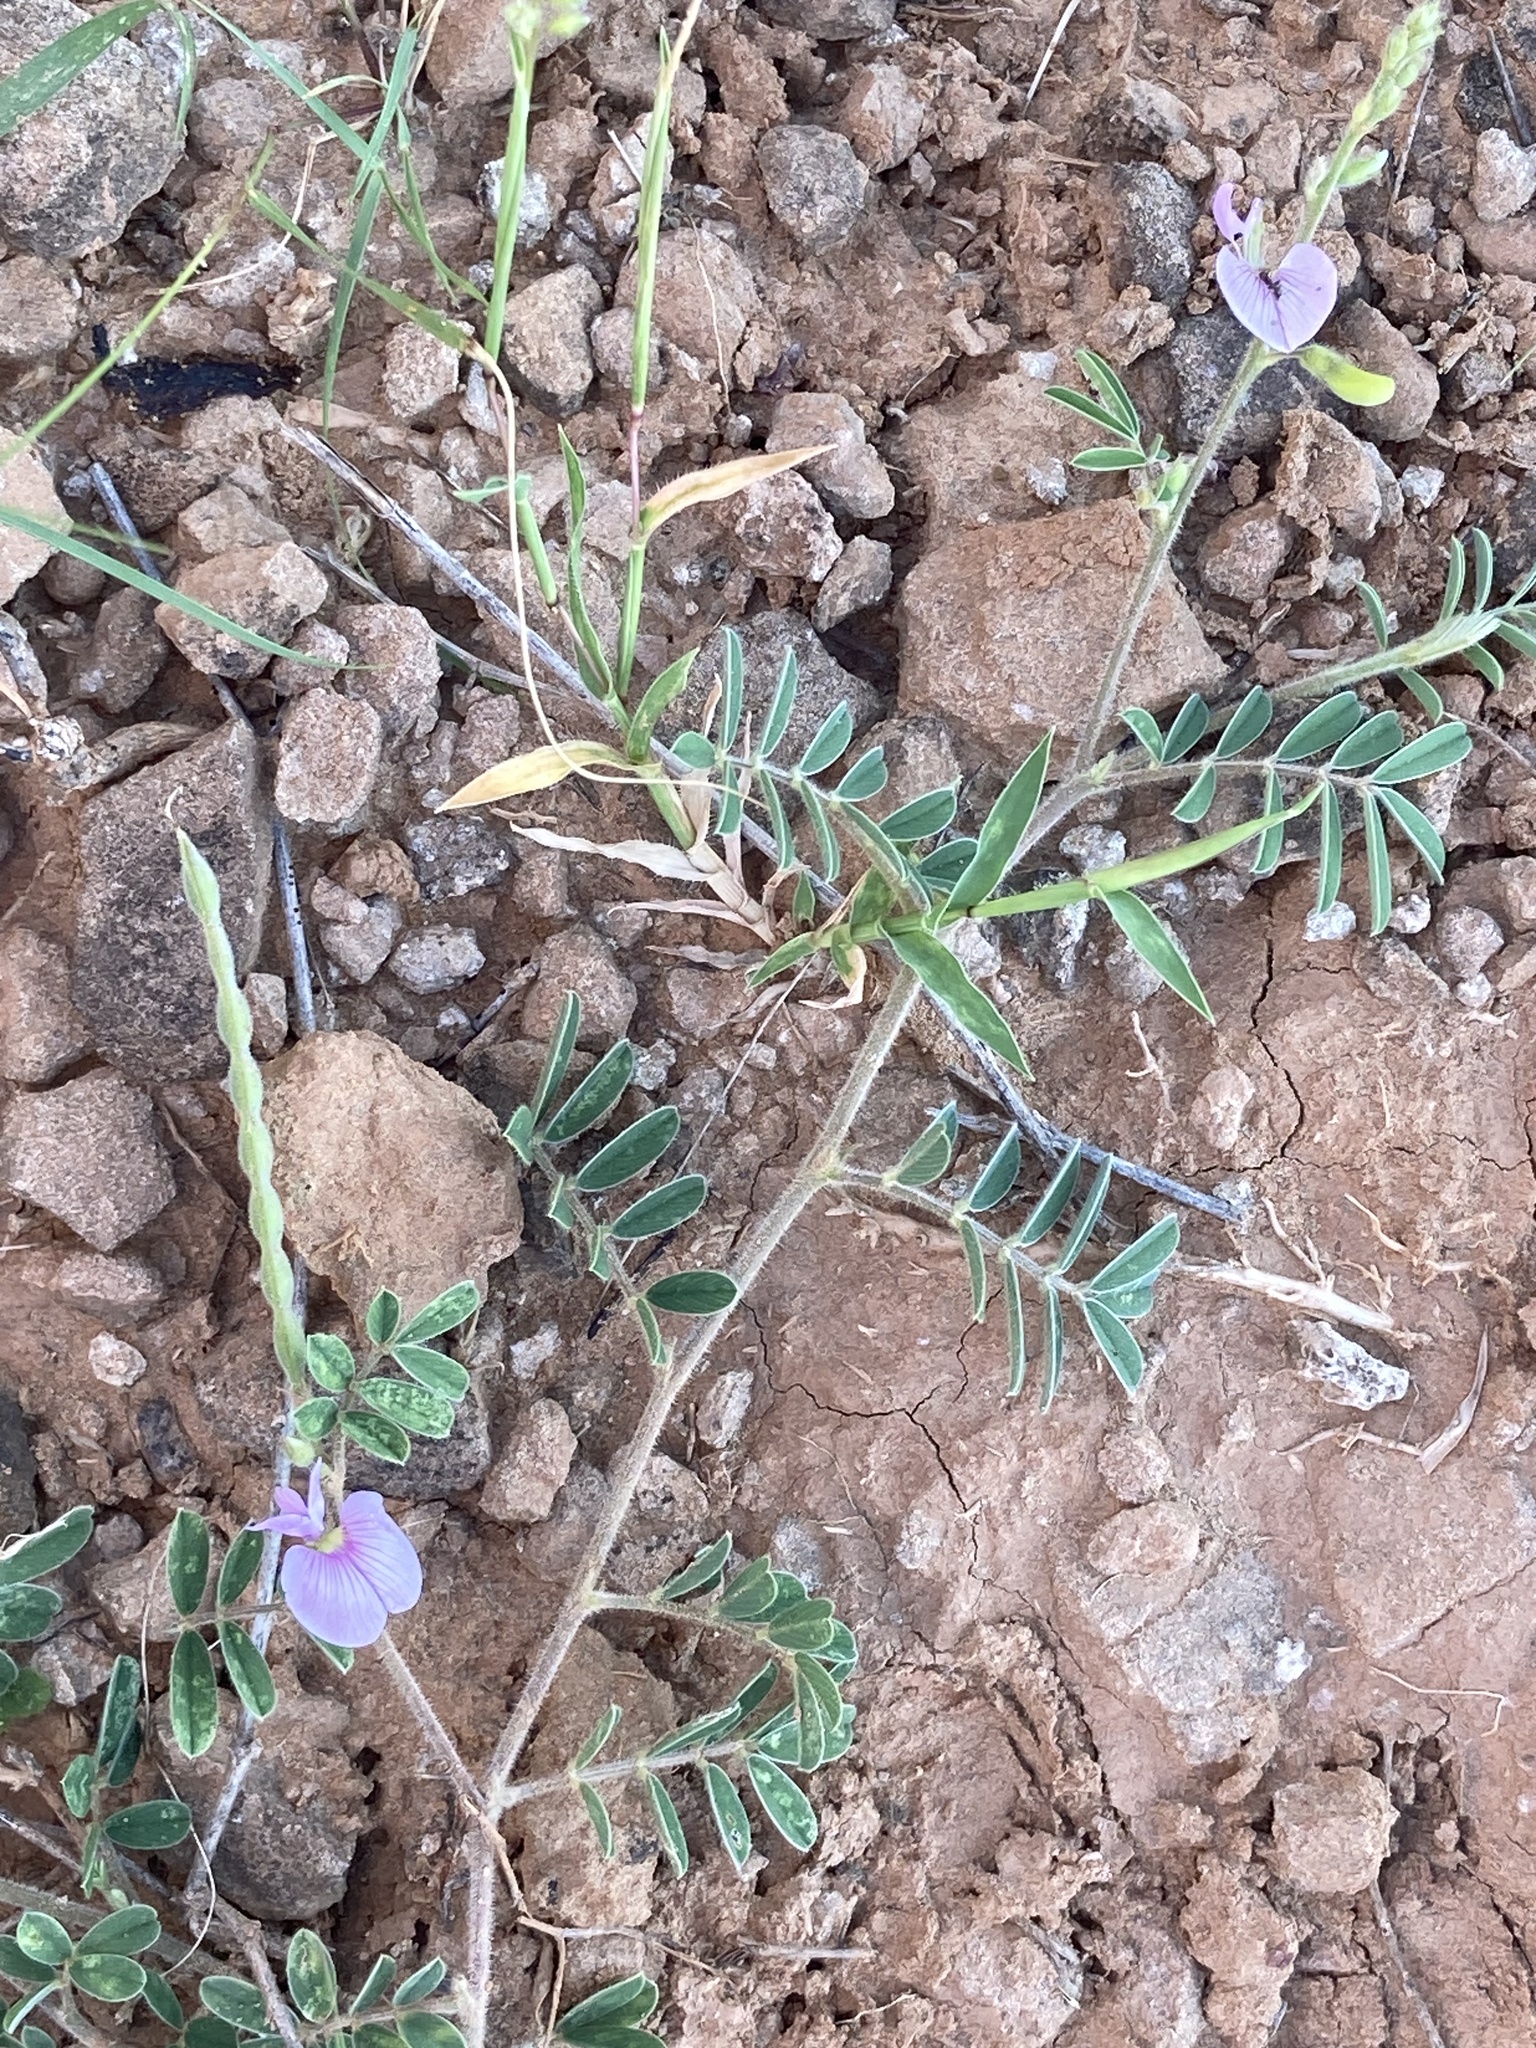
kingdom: Plantae
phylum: Tracheophyta
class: Magnoliopsida
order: Fabales
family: Fabaceae
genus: Tephrosia
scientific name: Tephrosia cinerea
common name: Ashen hoarypea
